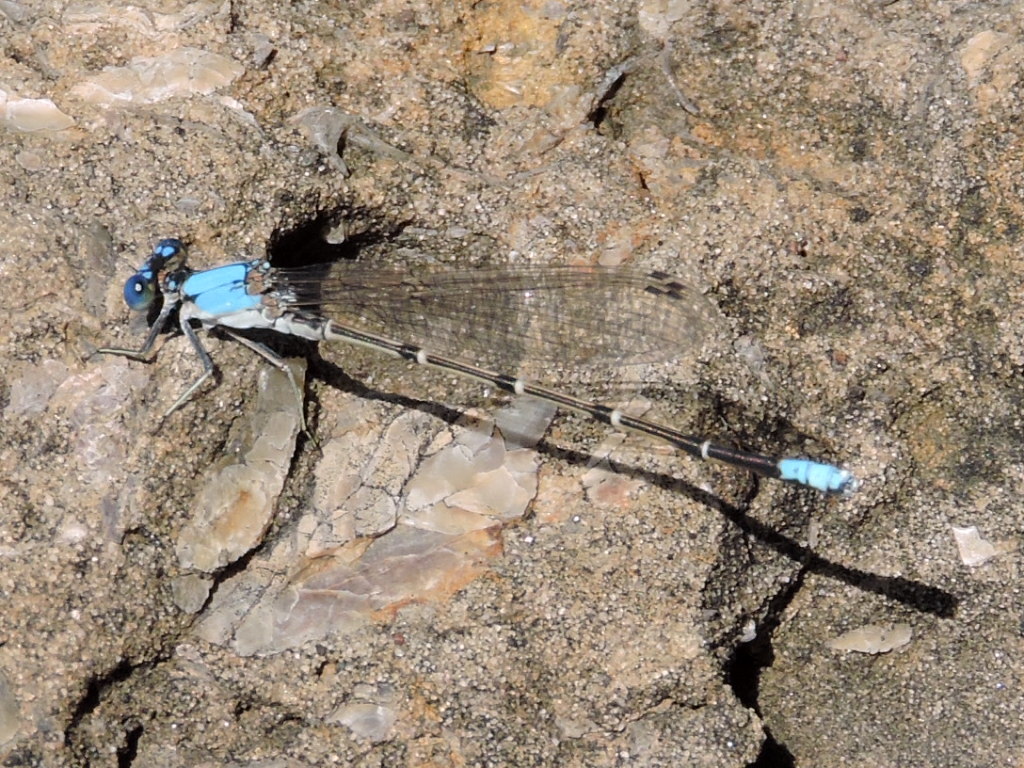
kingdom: Animalia
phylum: Arthropoda
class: Insecta
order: Odonata
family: Coenagrionidae
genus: Argia
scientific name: Argia apicalis
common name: Blue-fronted dancer
